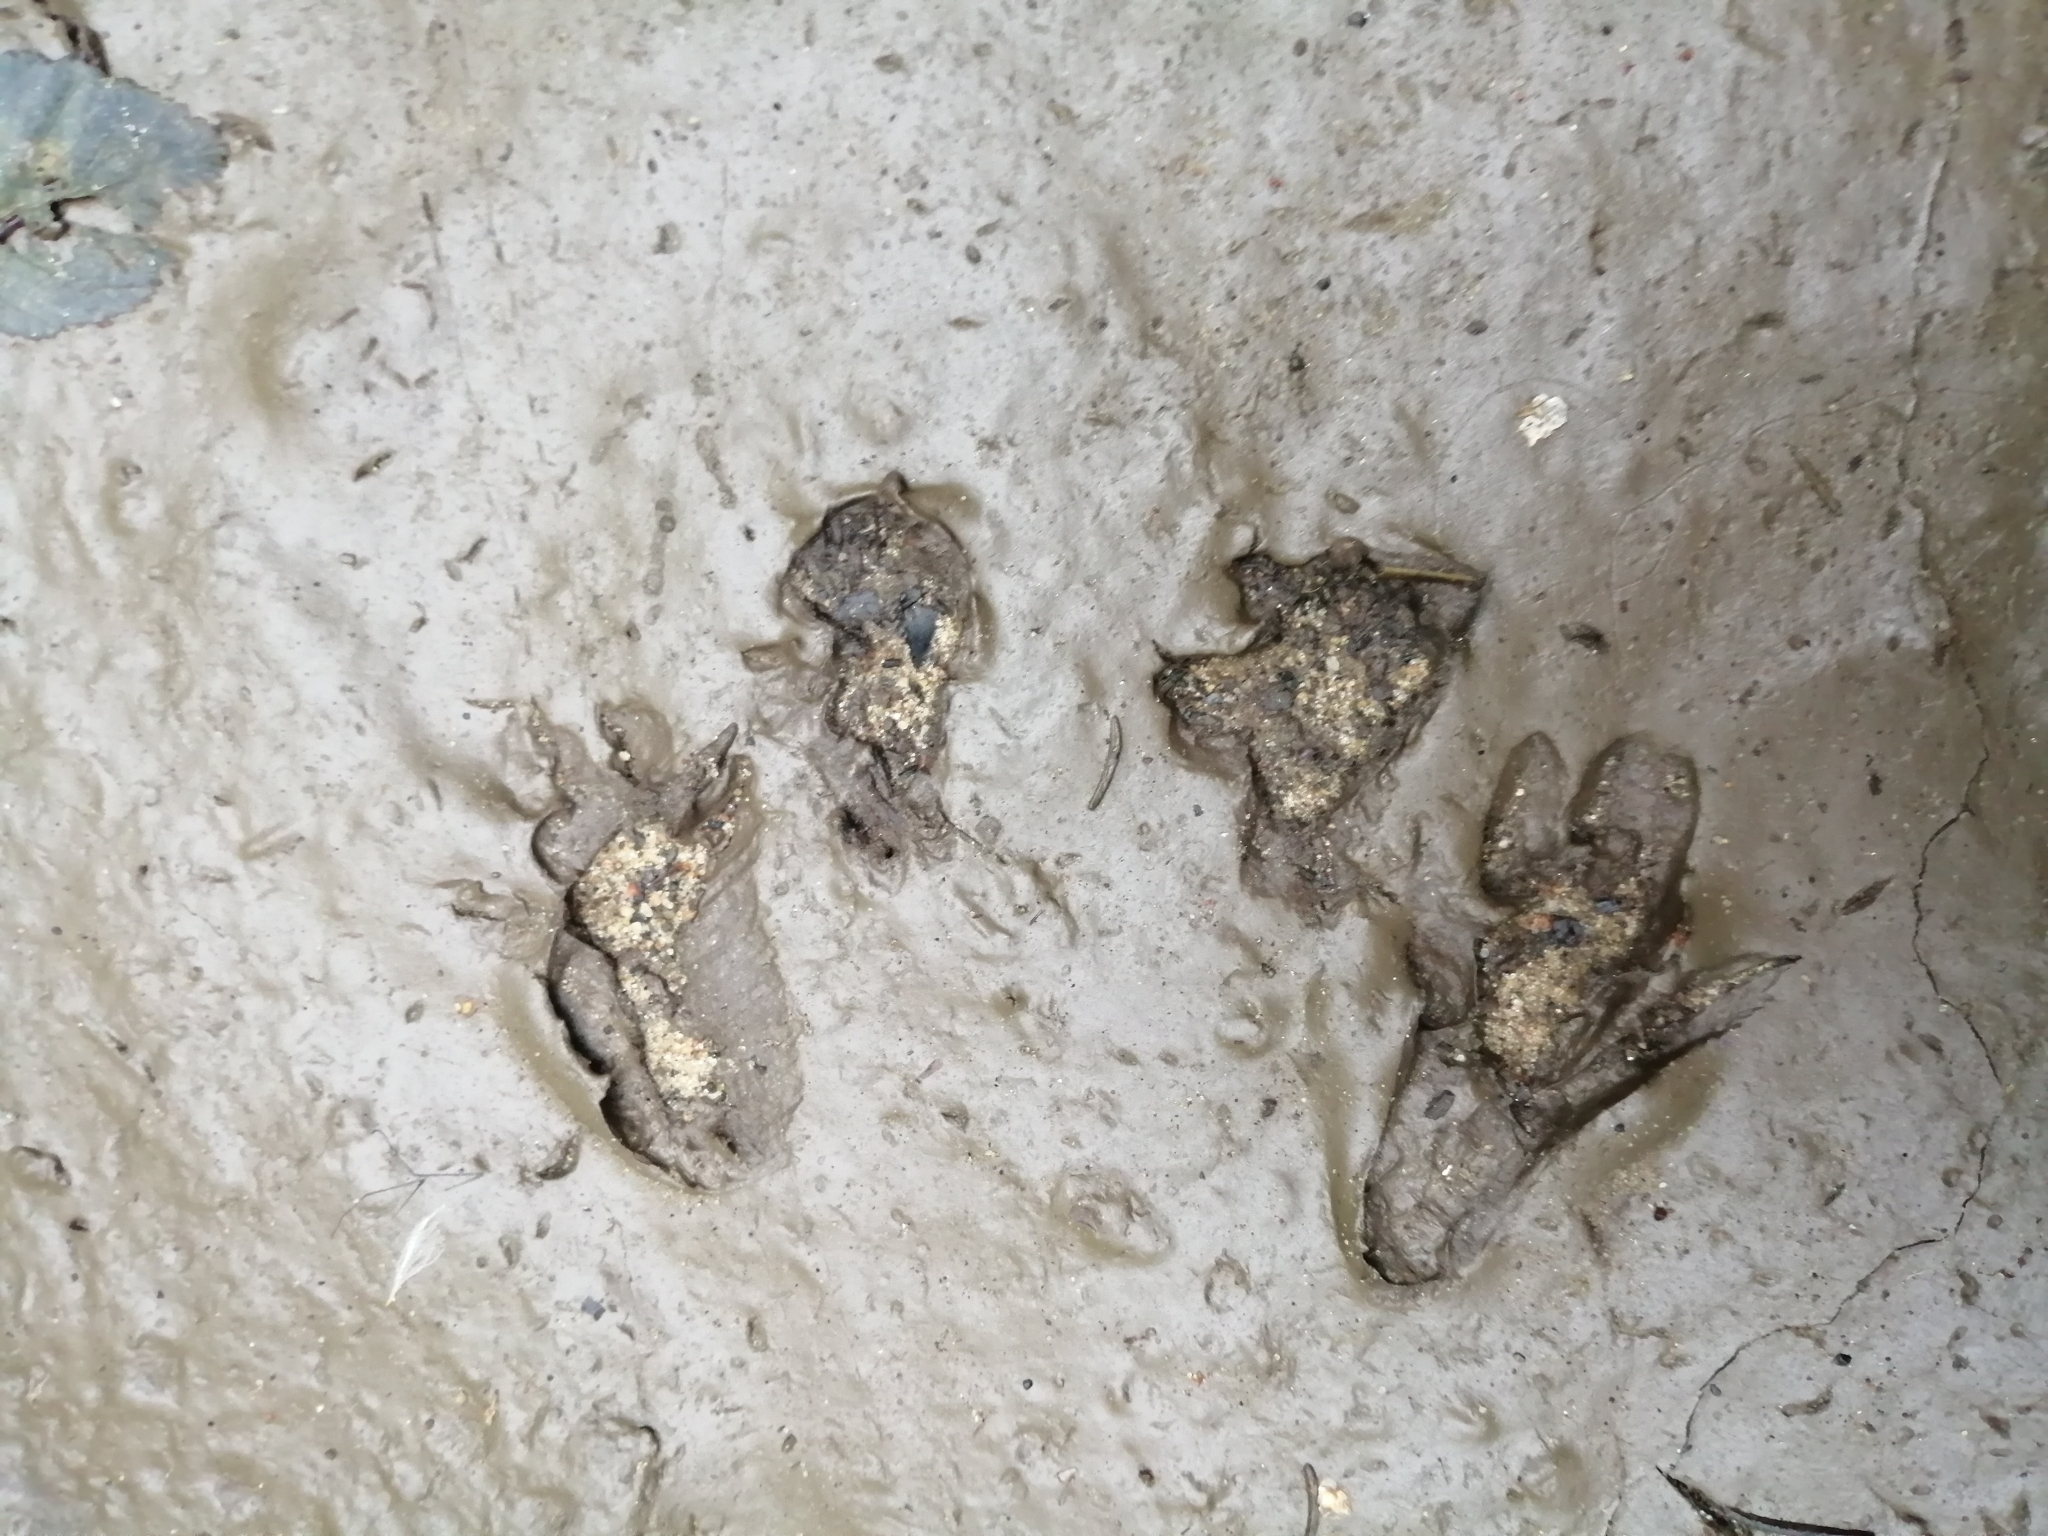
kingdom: Animalia
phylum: Chordata
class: Mammalia
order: Rodentia
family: Sciuridae
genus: Sciurus
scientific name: Sciurus vulgaris
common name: Eurasian red squirrel
